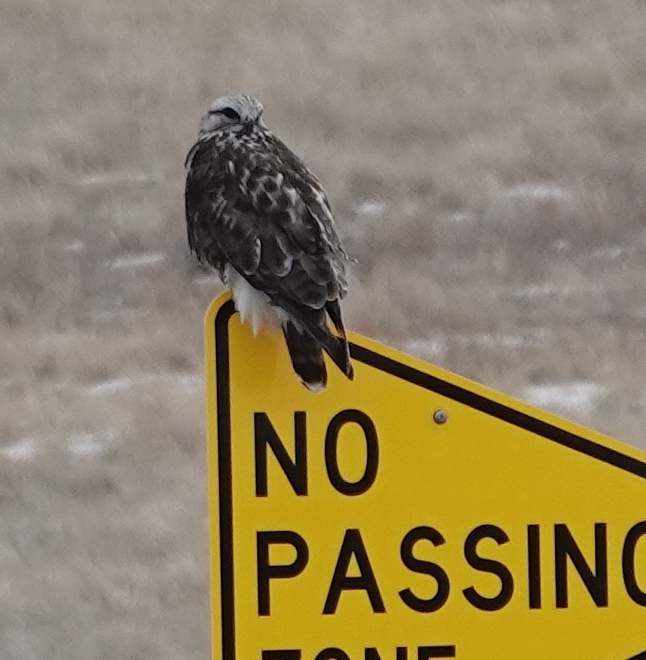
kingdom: Animalia
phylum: Chordata
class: Aves
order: Accipitriformes
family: Accipitridae
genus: Buteo
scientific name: Buteo lagopus
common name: Rough-legged buzzard
